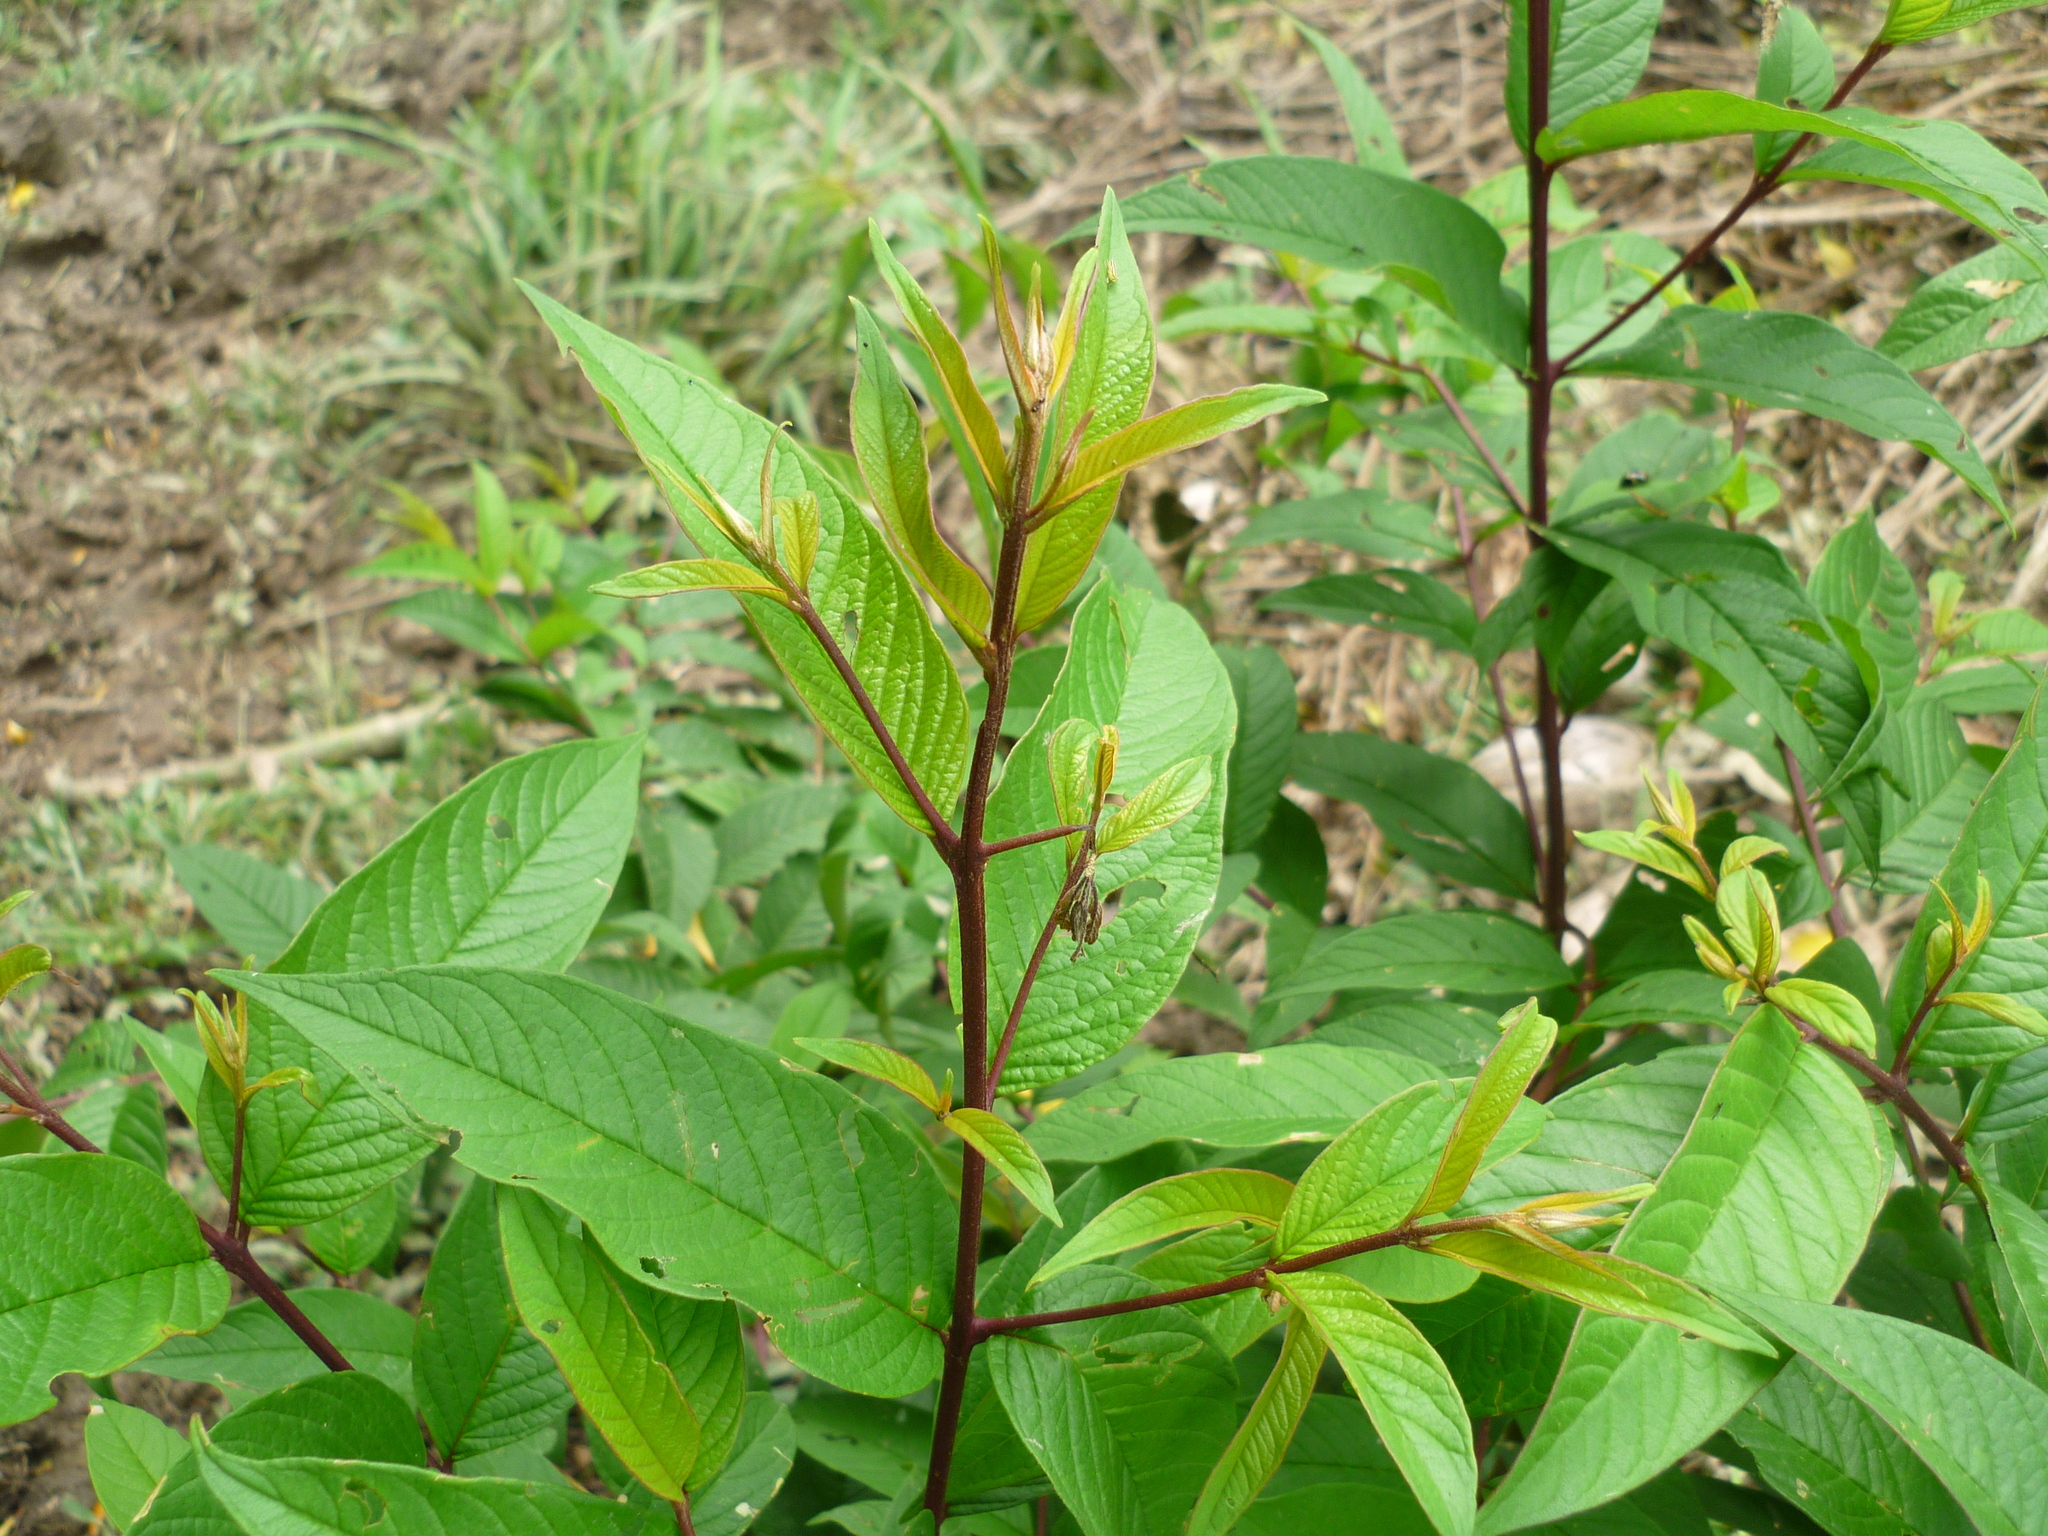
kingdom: Plantae
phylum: Tracheophyta
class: Magnoliopsida
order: Myrtales
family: Lythraceae
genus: Adenaria
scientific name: Adenaria floribunda
